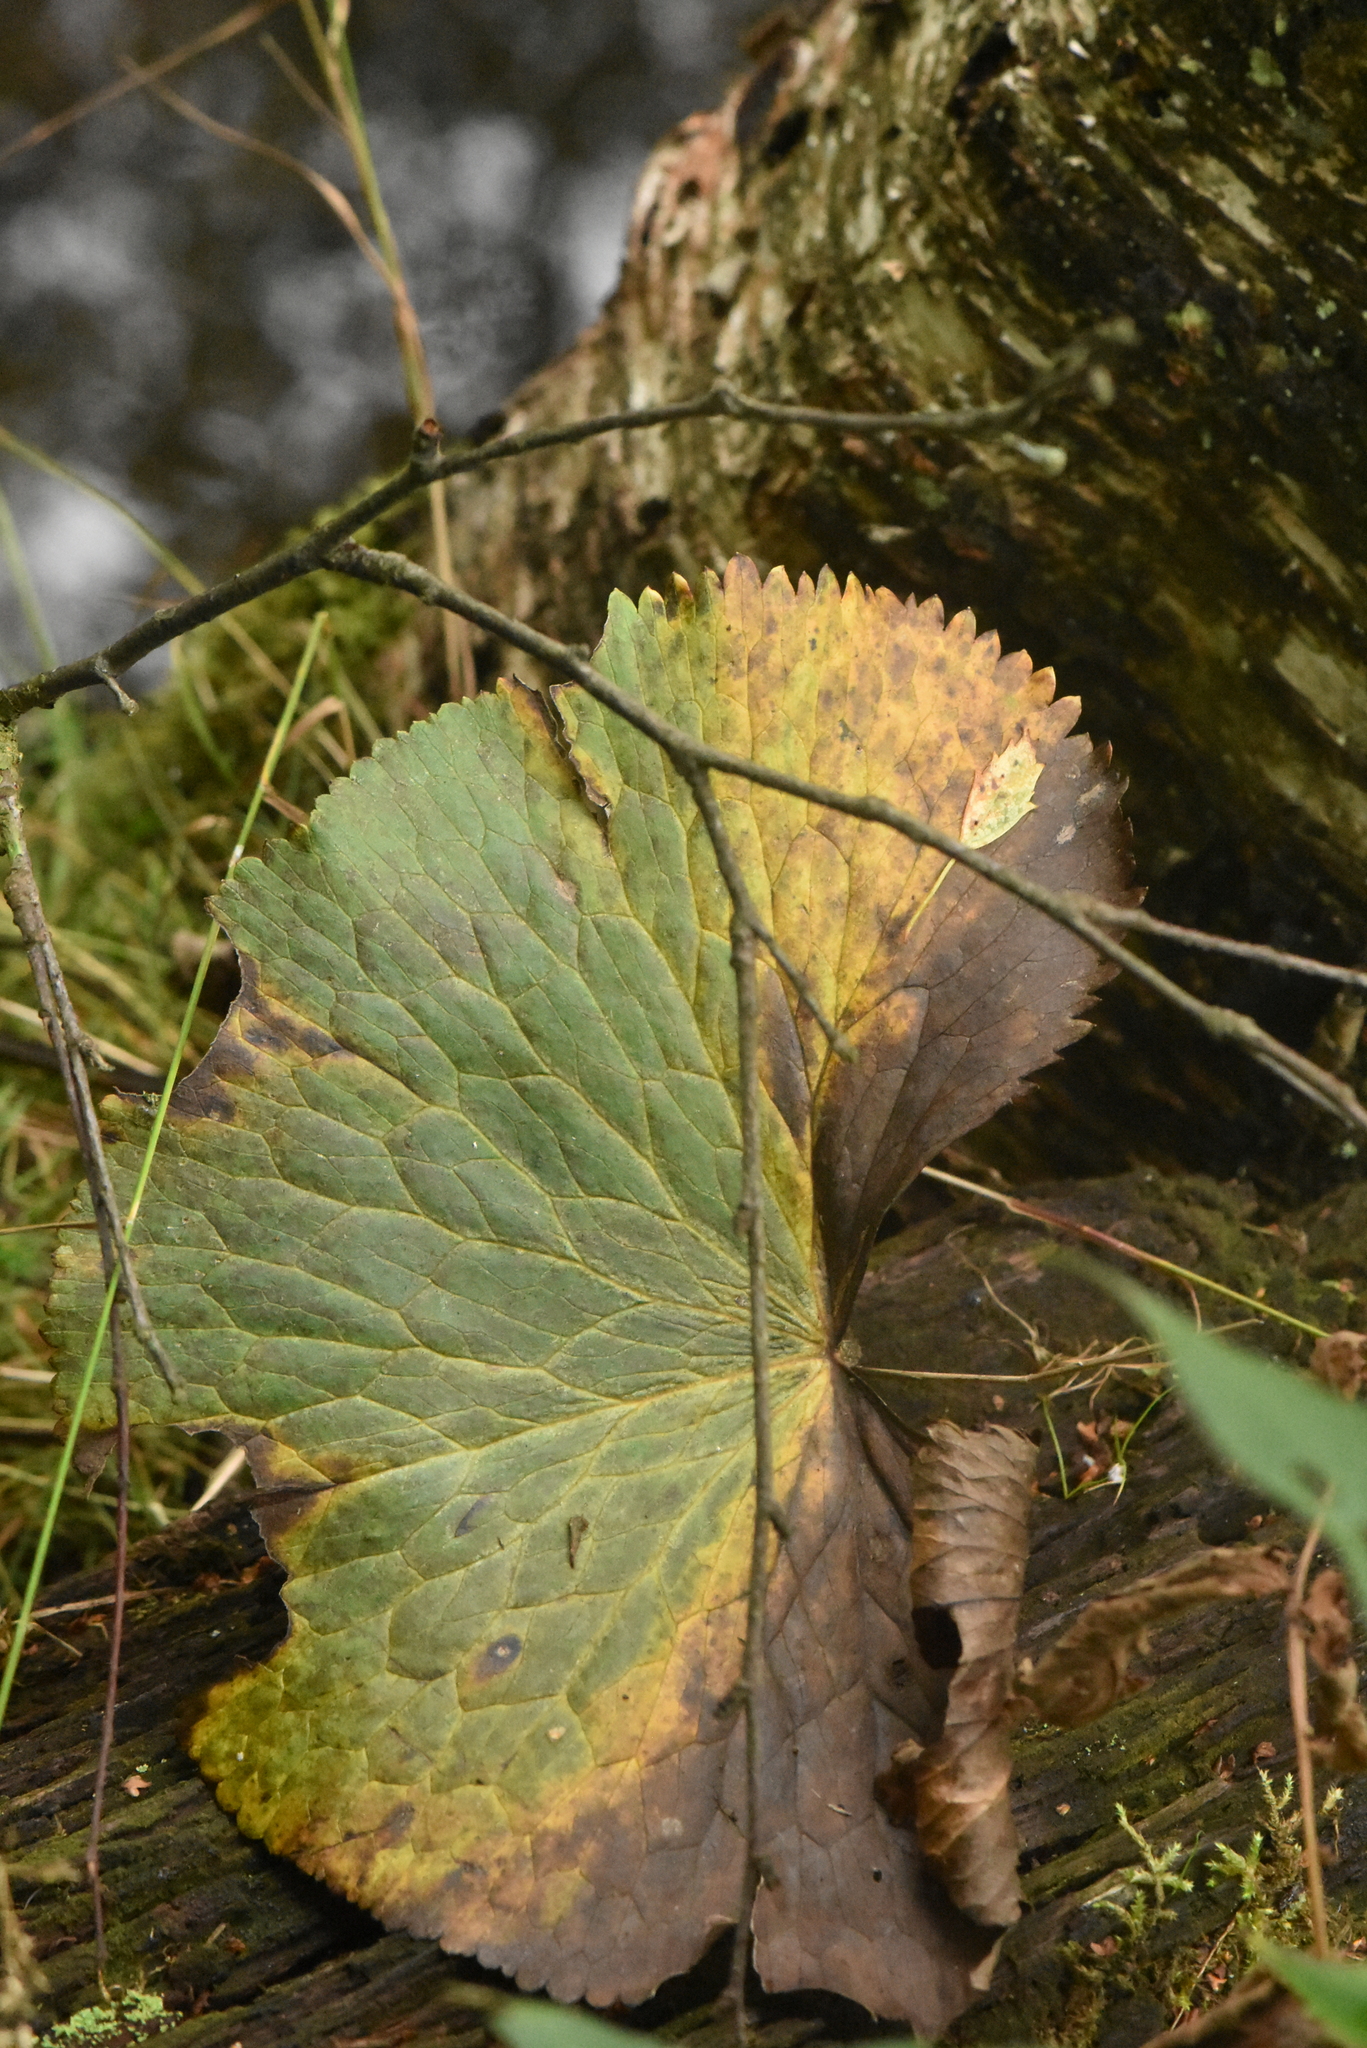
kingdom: Plantae
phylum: Tracheophyta
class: Magnoliopsida
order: Ranunculales
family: Ranunculaceae
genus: Caltha
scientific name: Caltha palustris
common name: Marsh marigold
